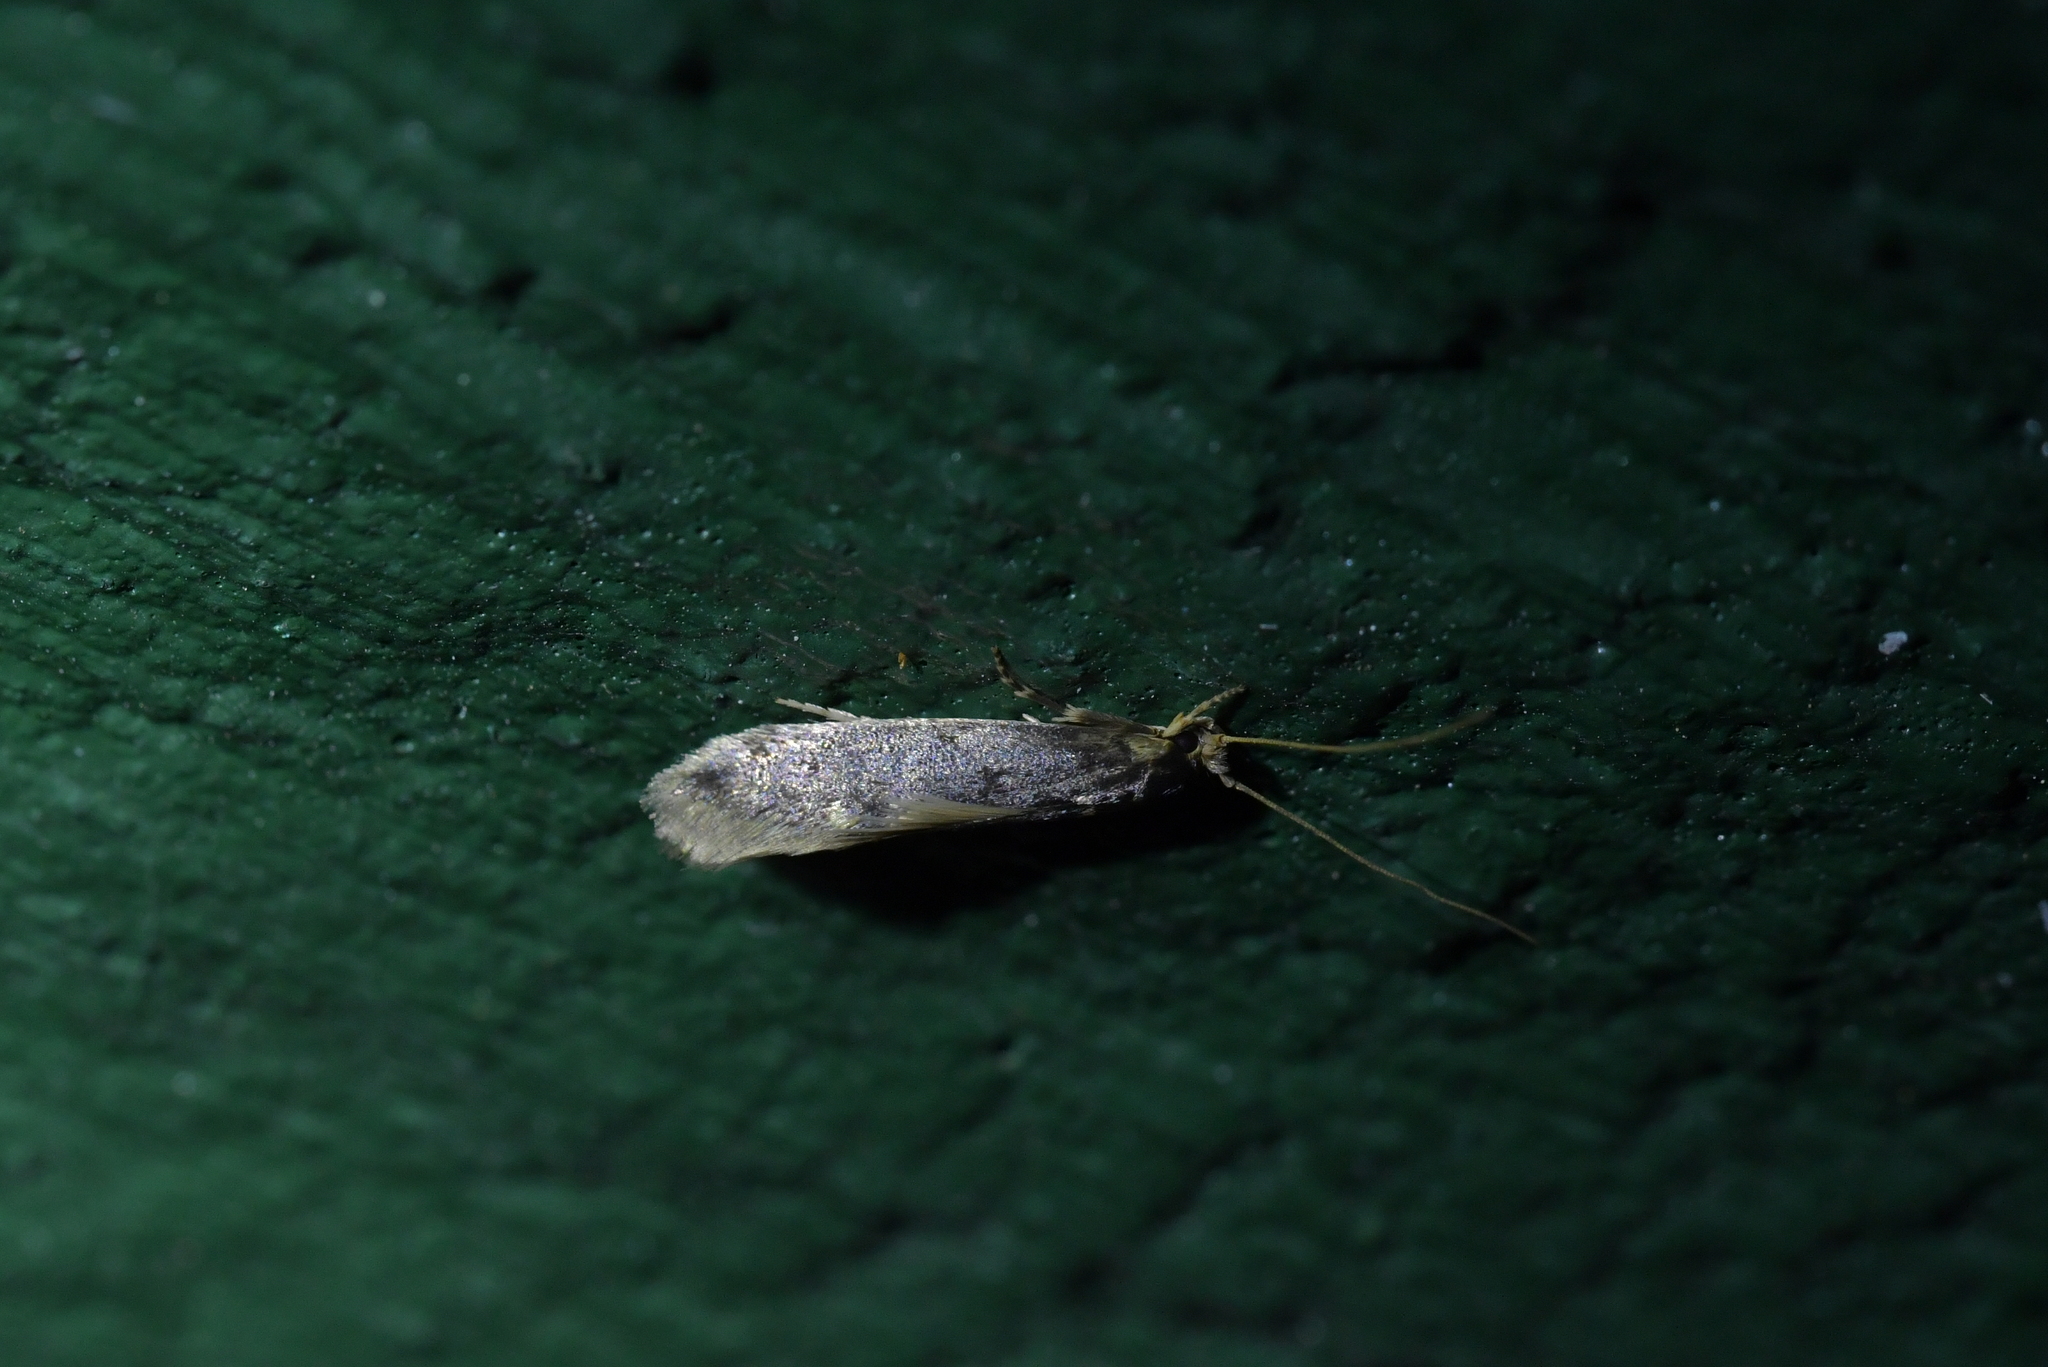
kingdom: Animalia
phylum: Arthropoda
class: Insecta
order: Lepidoptera
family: Tineidae
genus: Opogona
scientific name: Opogona omoscopa
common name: Moth
